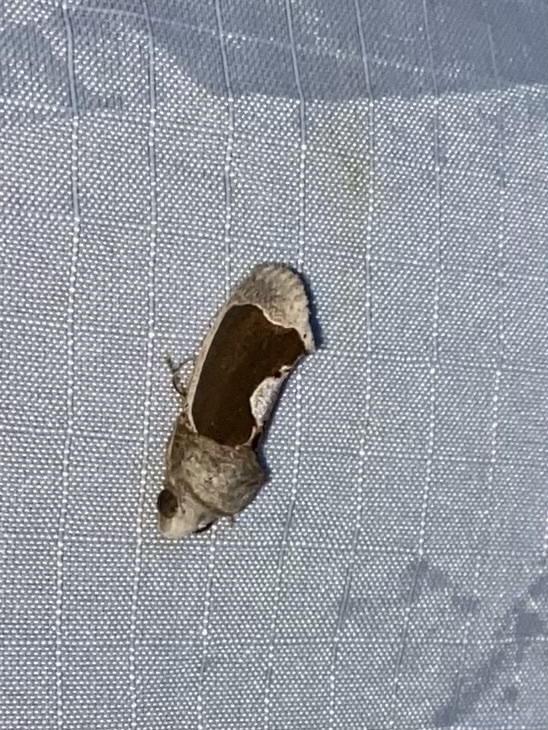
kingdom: Animalia
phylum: Arthropoda
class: Insecta
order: Lepidoptera
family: Erebidae
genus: Gonodonta
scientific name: Gonodonta sinaldus
